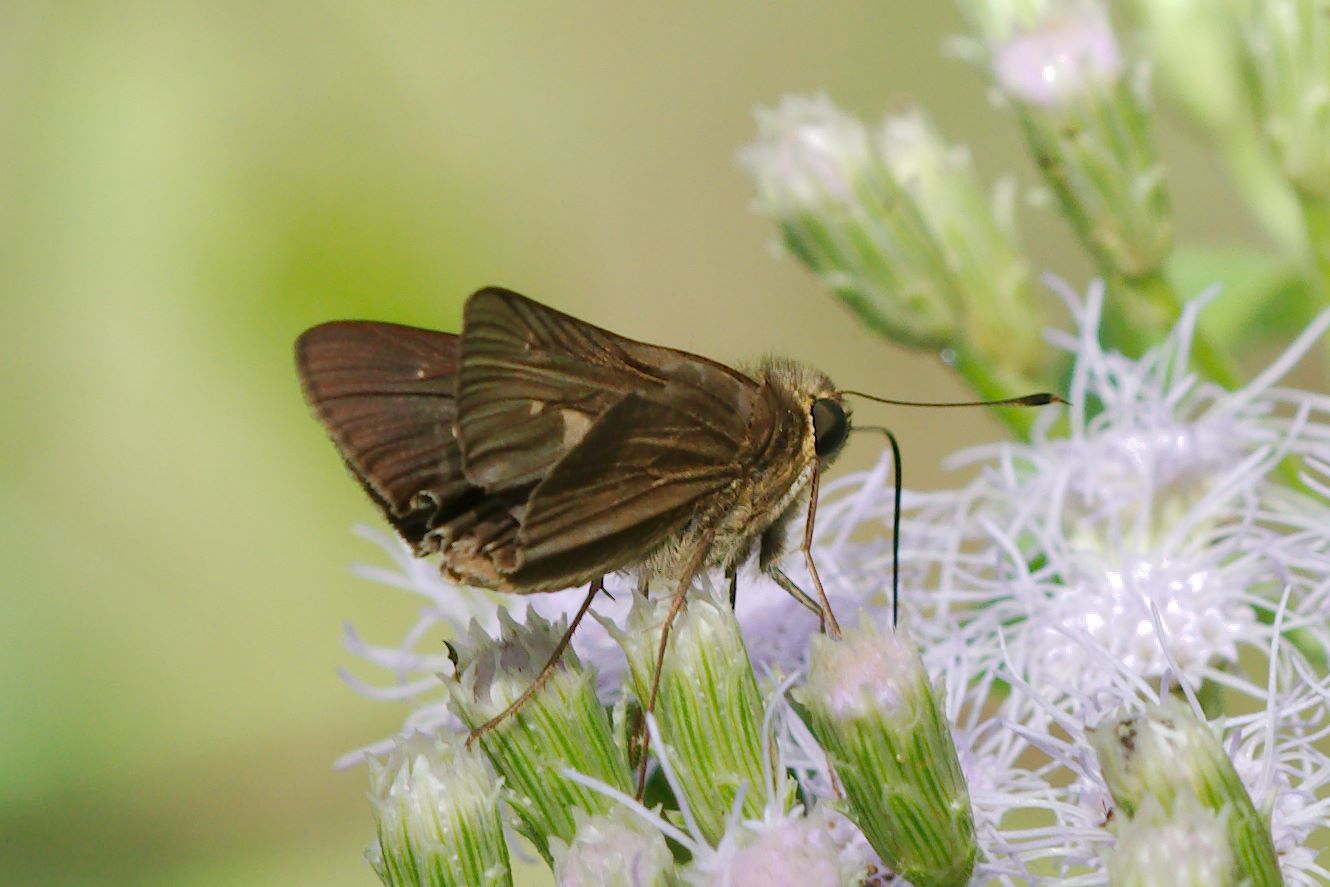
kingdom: Animalia
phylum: Arthropoda
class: Insecta
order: Lepidoptera
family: Hesperiidae
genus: Panoquina
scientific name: Panoquina ocola
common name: Ocola skipper
